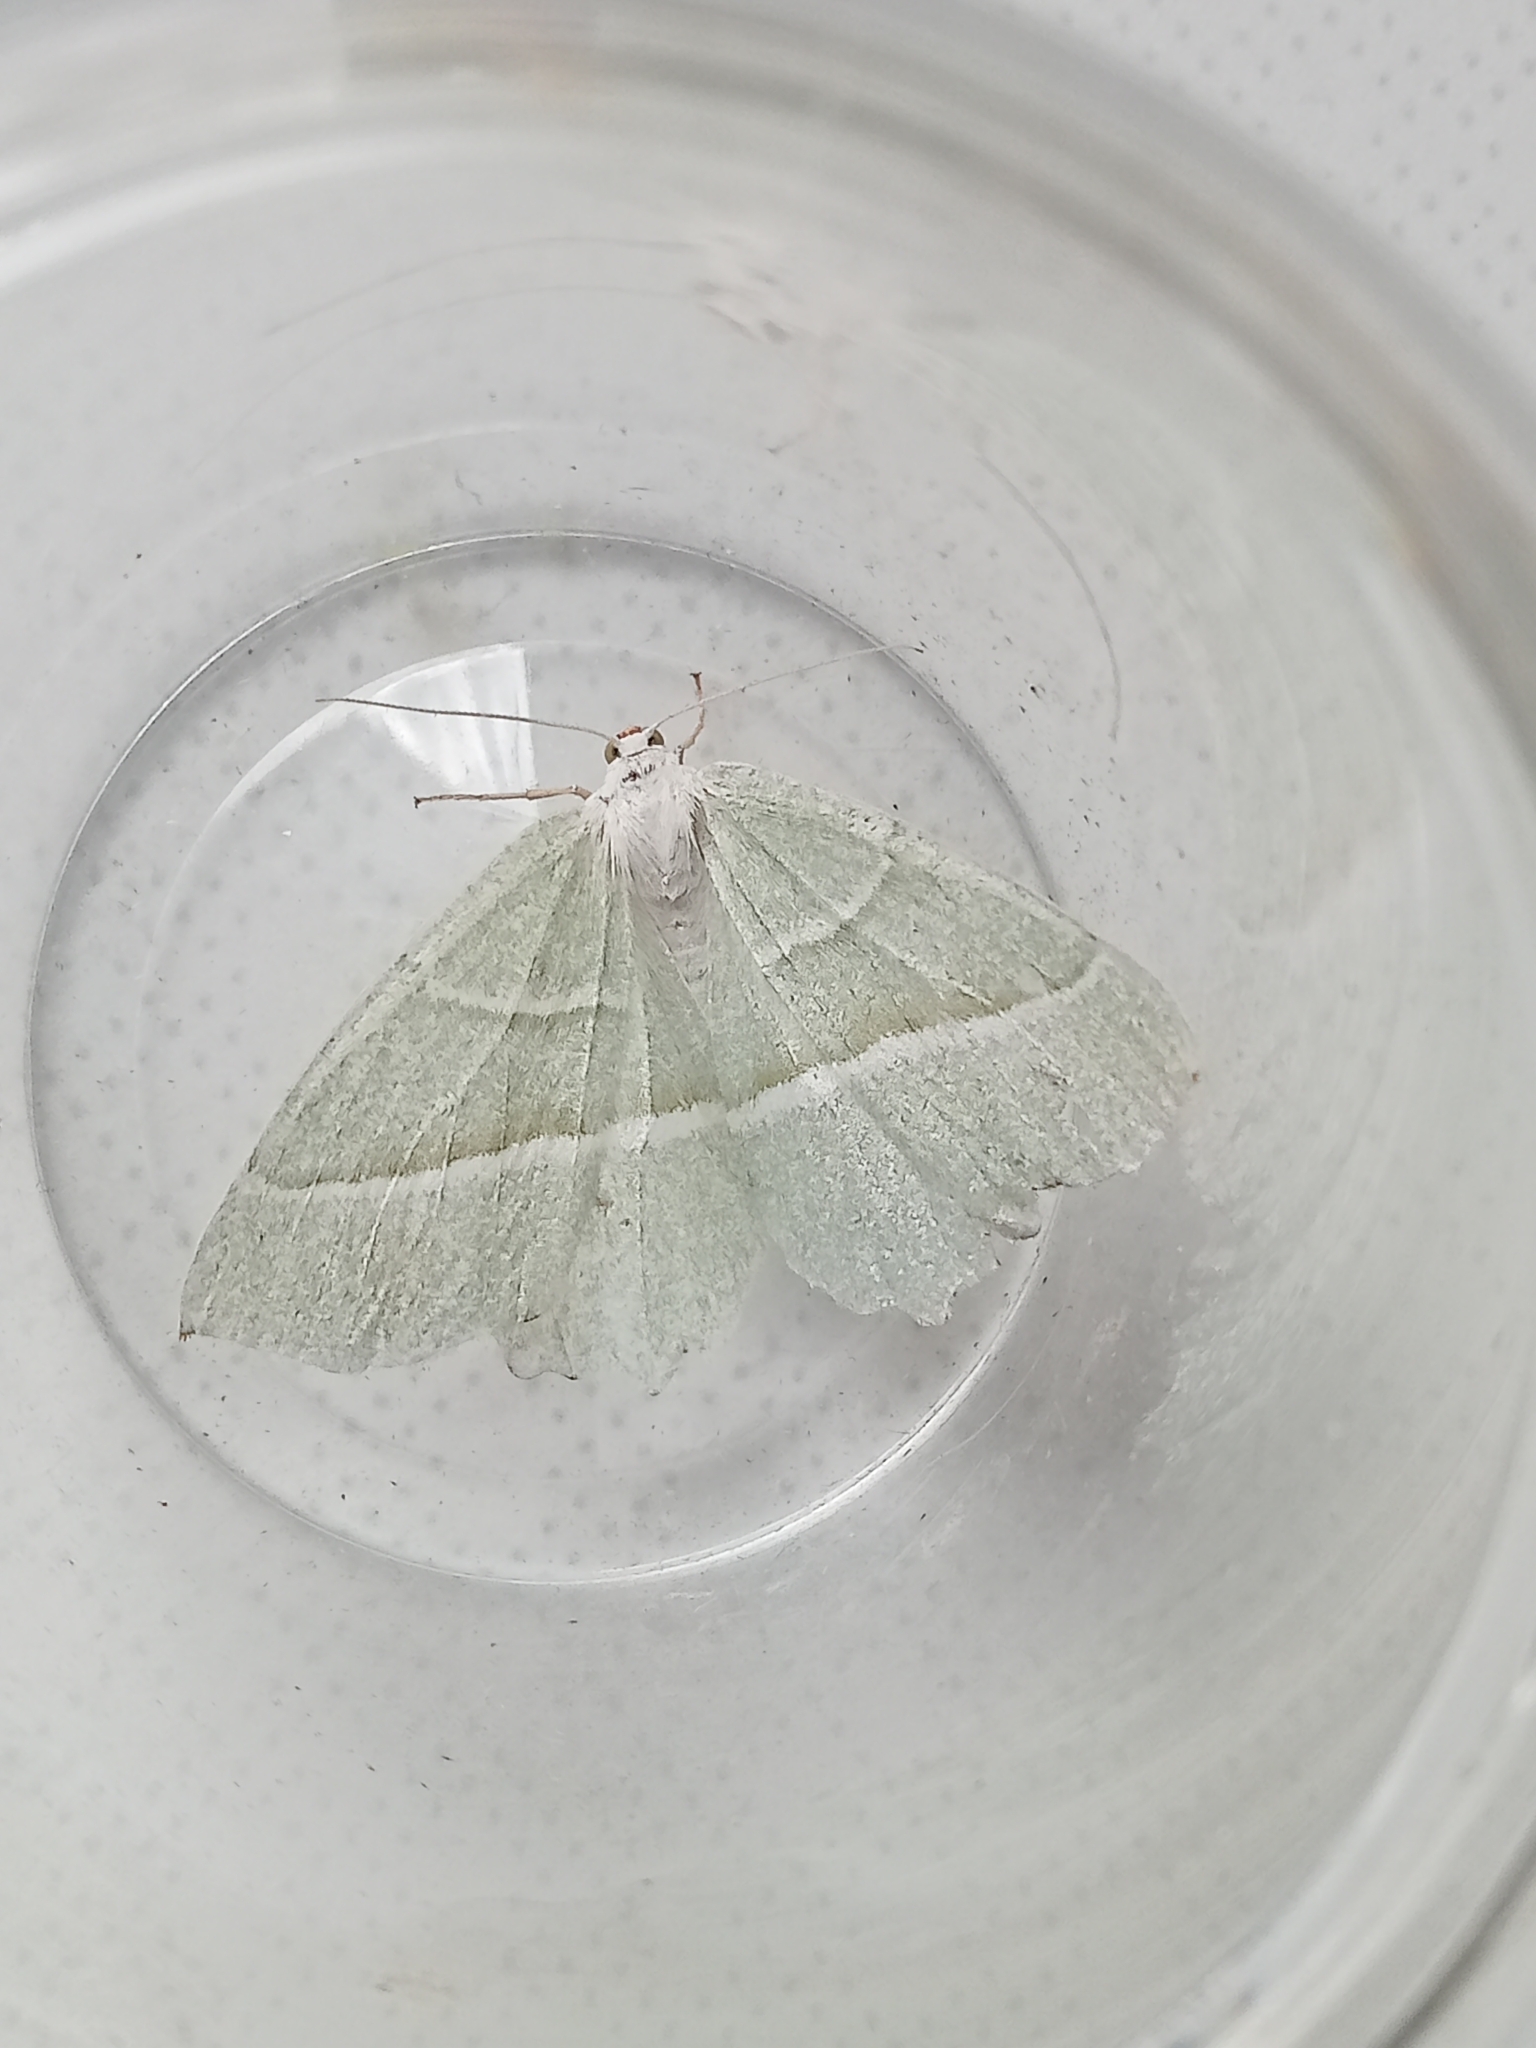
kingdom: Animalia
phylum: Arthropoda
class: Insecta
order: Lepidoptera
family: Geometridae
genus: Campaea
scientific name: Campaea margaritaria
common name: Light emerald
